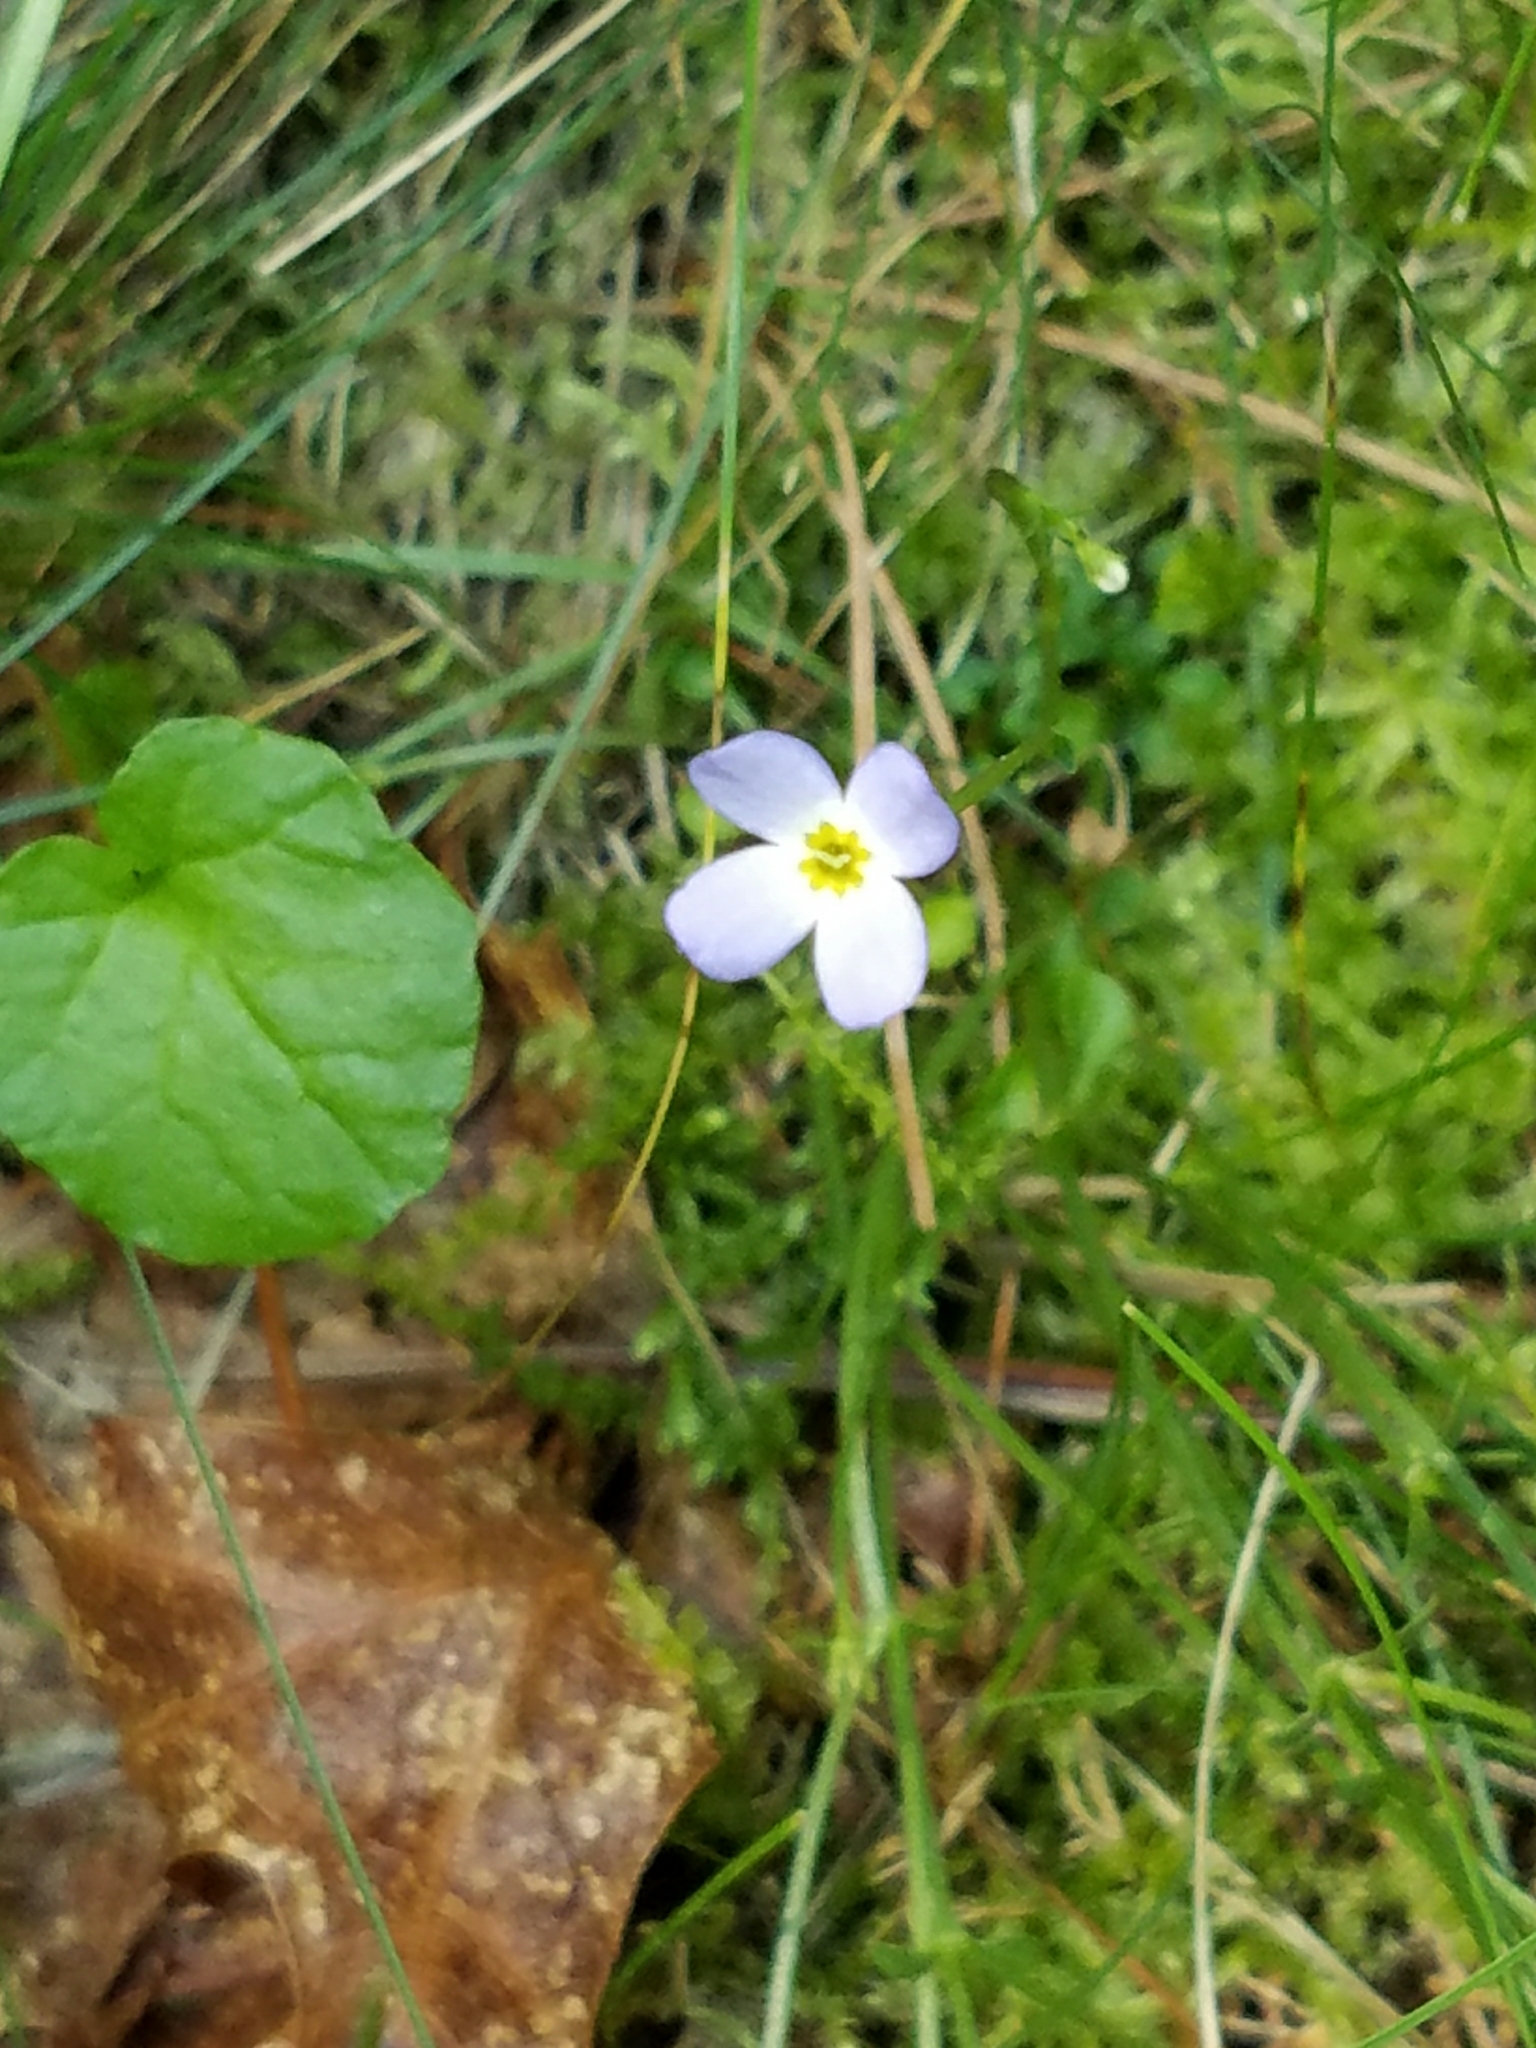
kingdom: Plantae
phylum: Tracheophyta
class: Magnoliopsida
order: Gentianales
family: Rubiaceae
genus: Houstonia
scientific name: Houstonia caerulea
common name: Bluets
